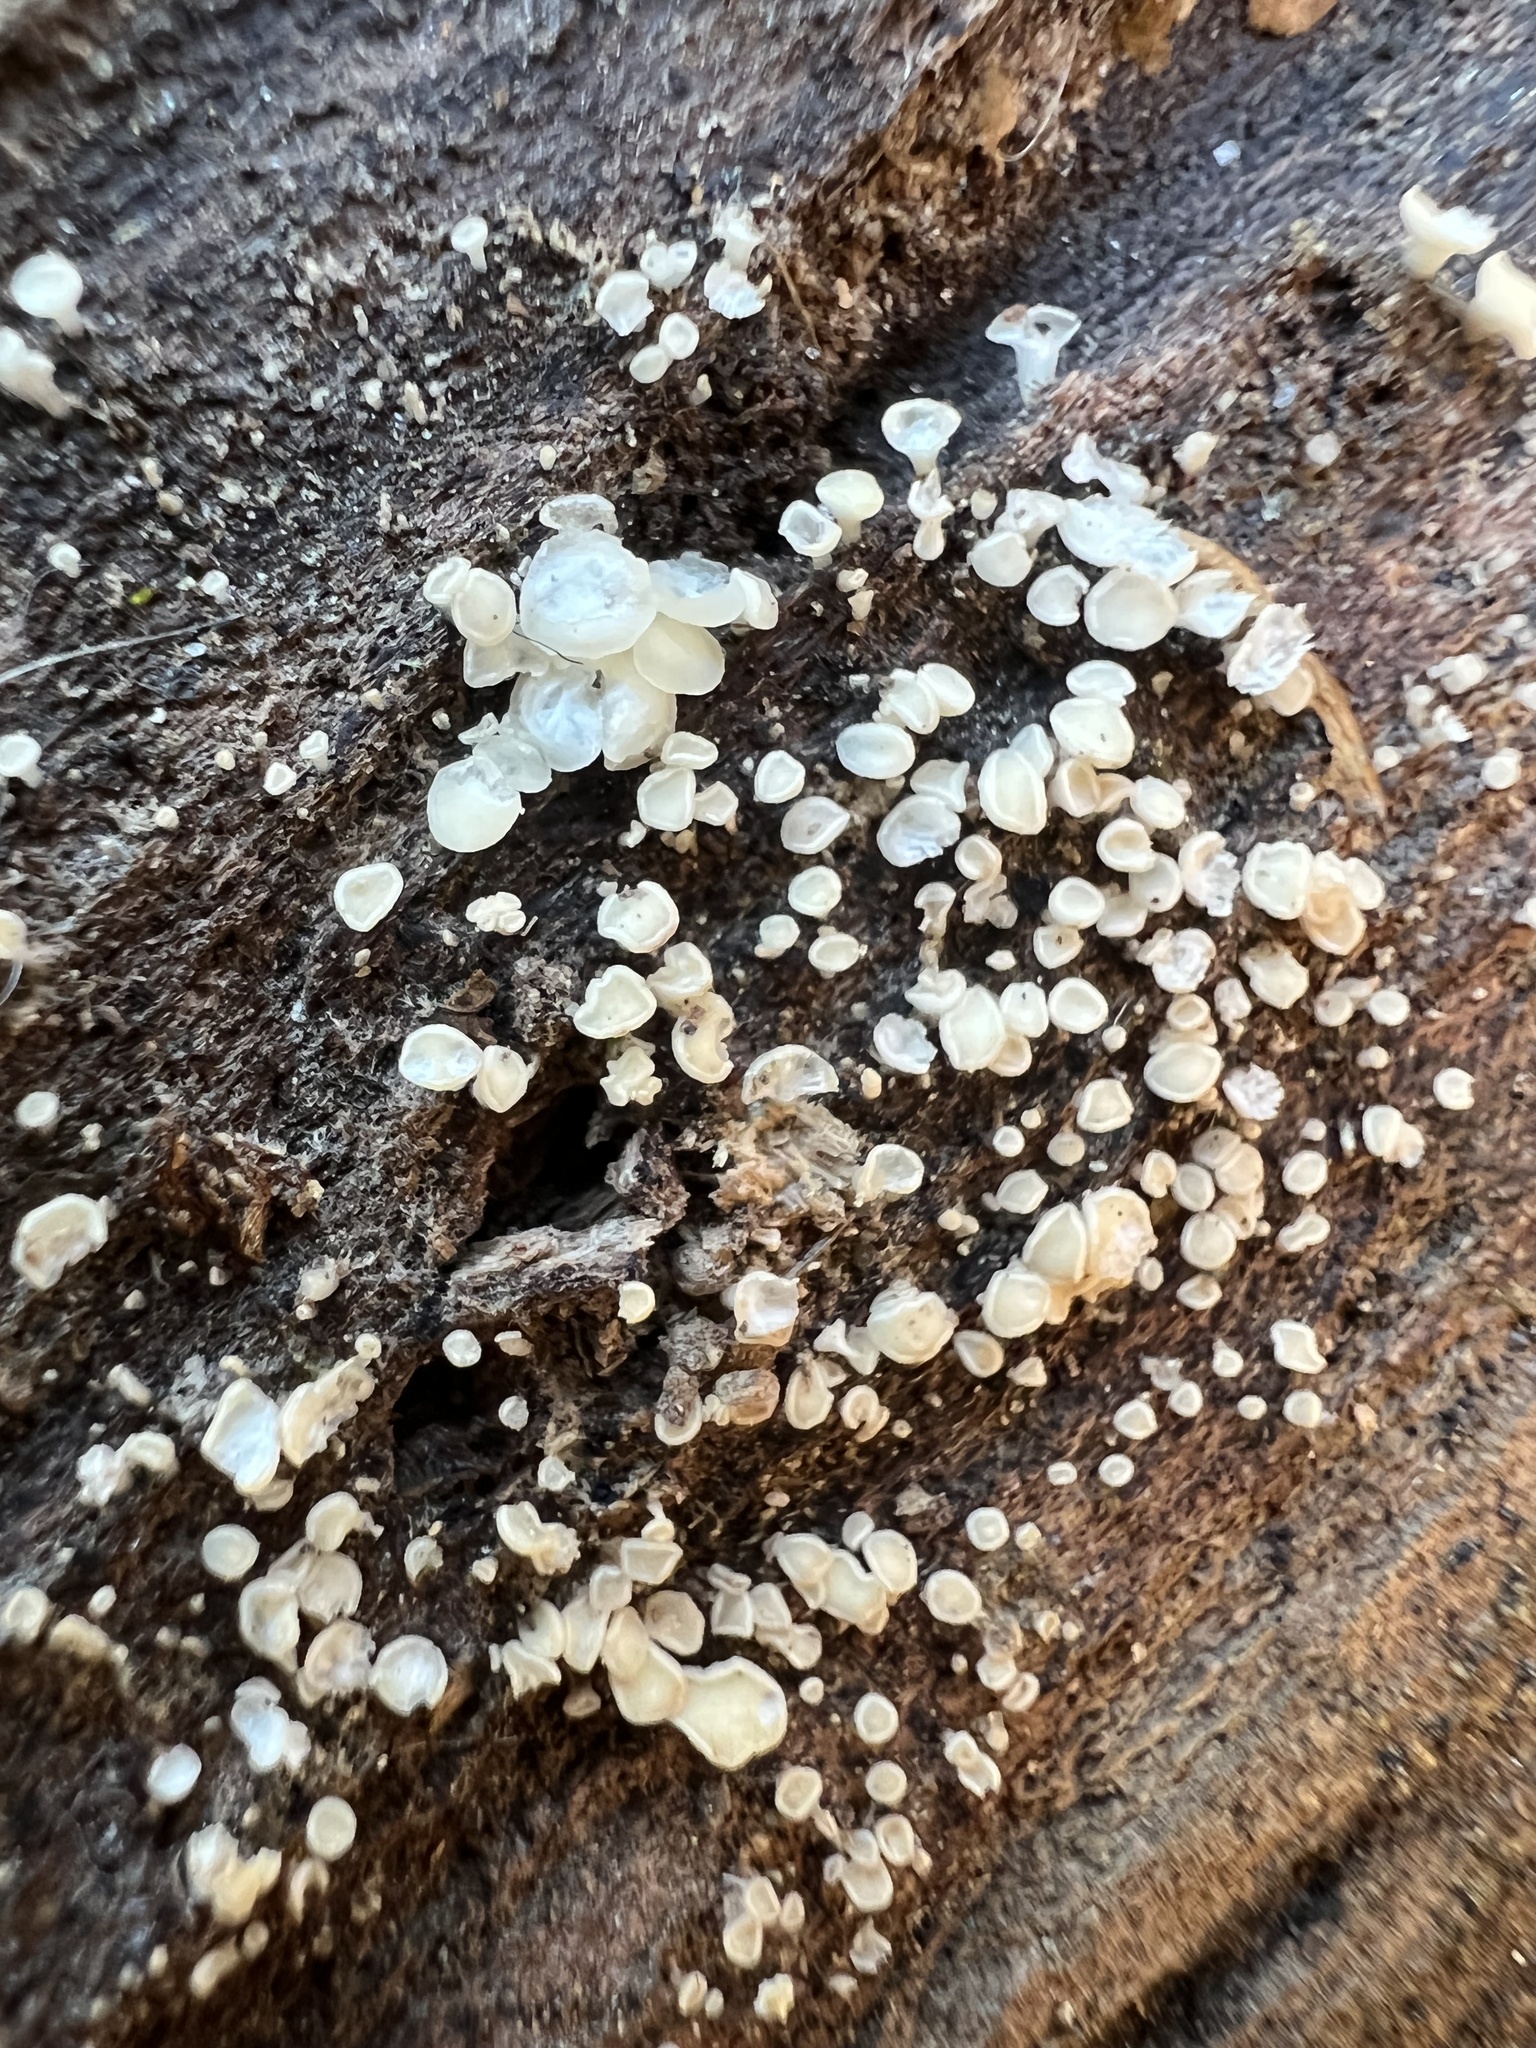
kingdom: Fungi
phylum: Ascomycota
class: Leotiomycetes
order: Helotiales
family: Lachnaceae
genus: Lachnum
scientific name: Lachnum virgineum
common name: Snowy disco
